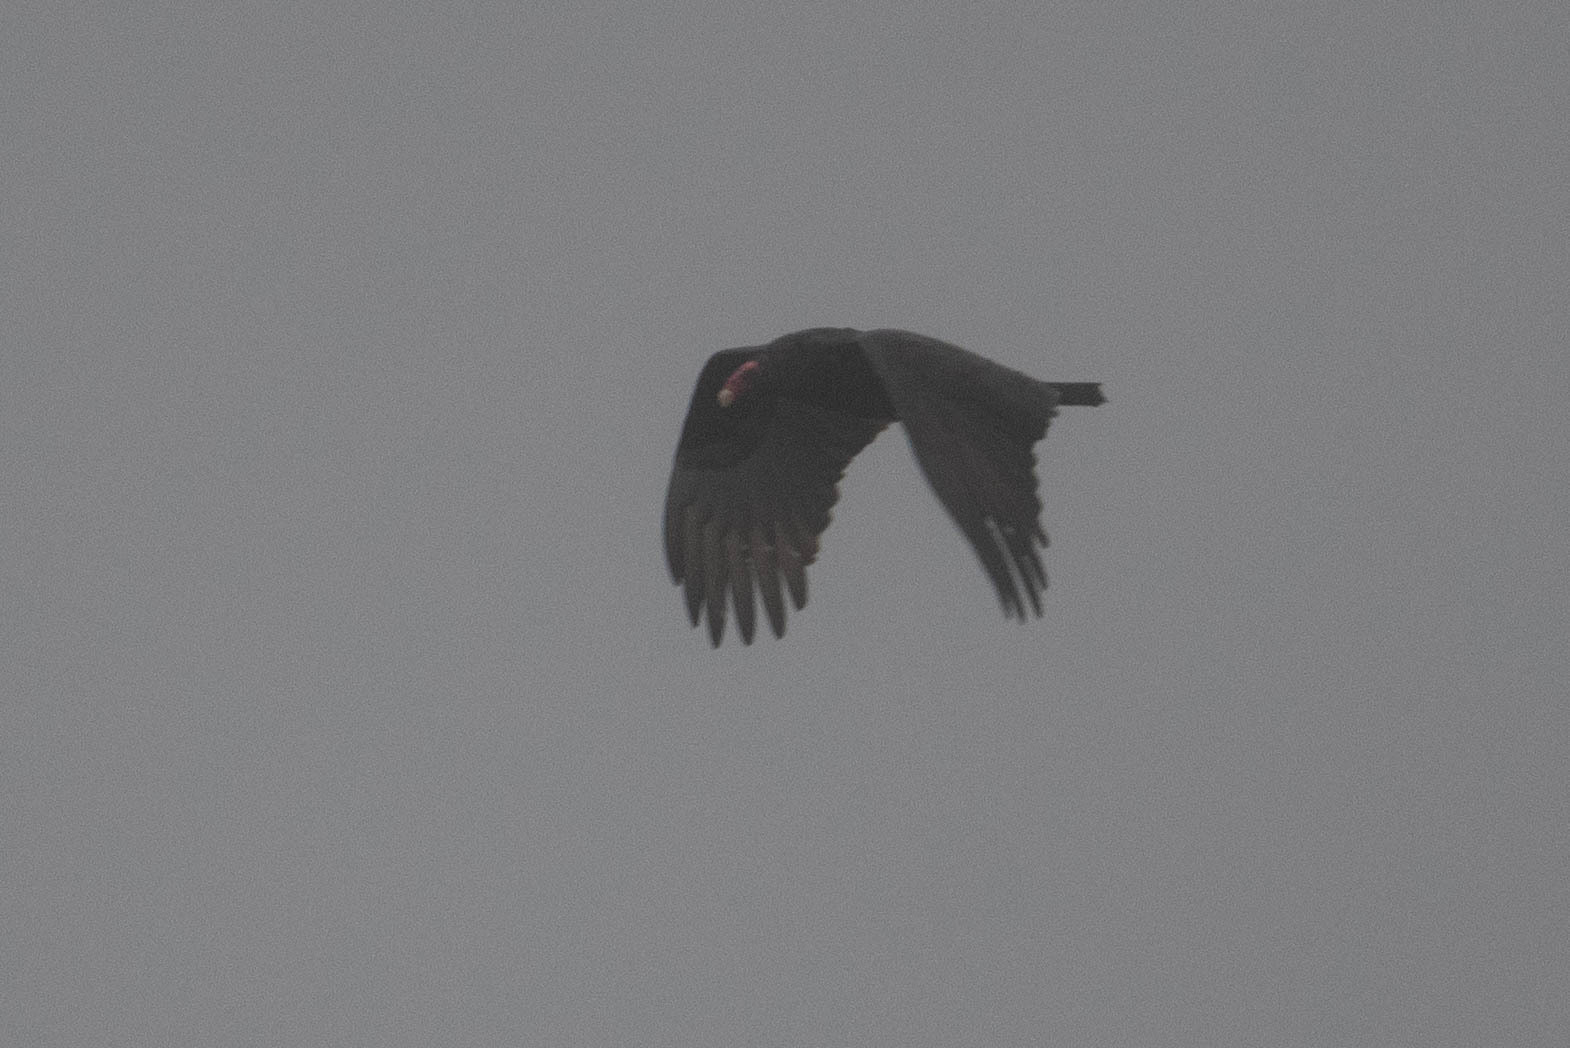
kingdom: Animalia
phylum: Chordata
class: Aves
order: Accipitriformes
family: Cathartidae
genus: Cathartes
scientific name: Cathartes aura
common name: Turkey vulture
